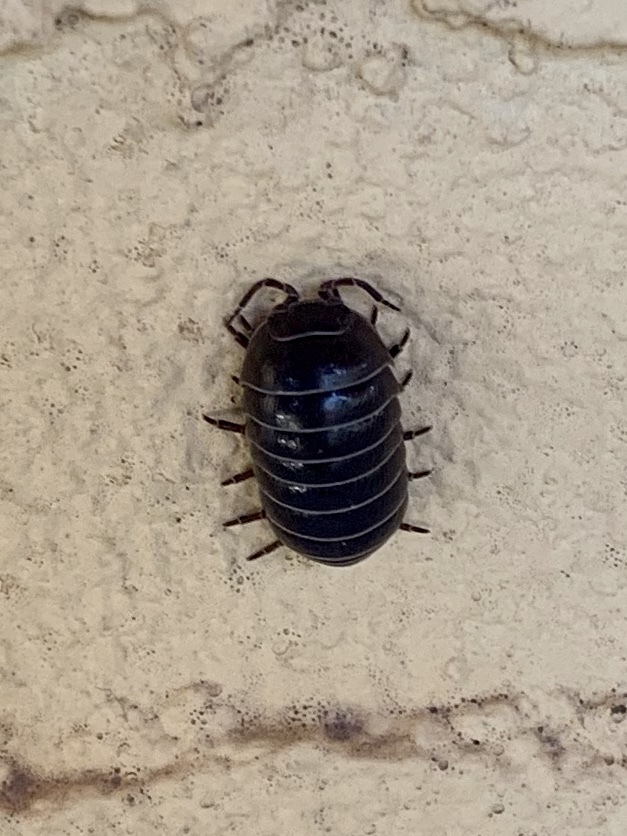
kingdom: Animalia
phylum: Arthropoda
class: Malacostraca
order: Isopoda
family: Armadillidiidae
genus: Armadillidium
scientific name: Armadillidium vulgare
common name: Common pill woodlouse
